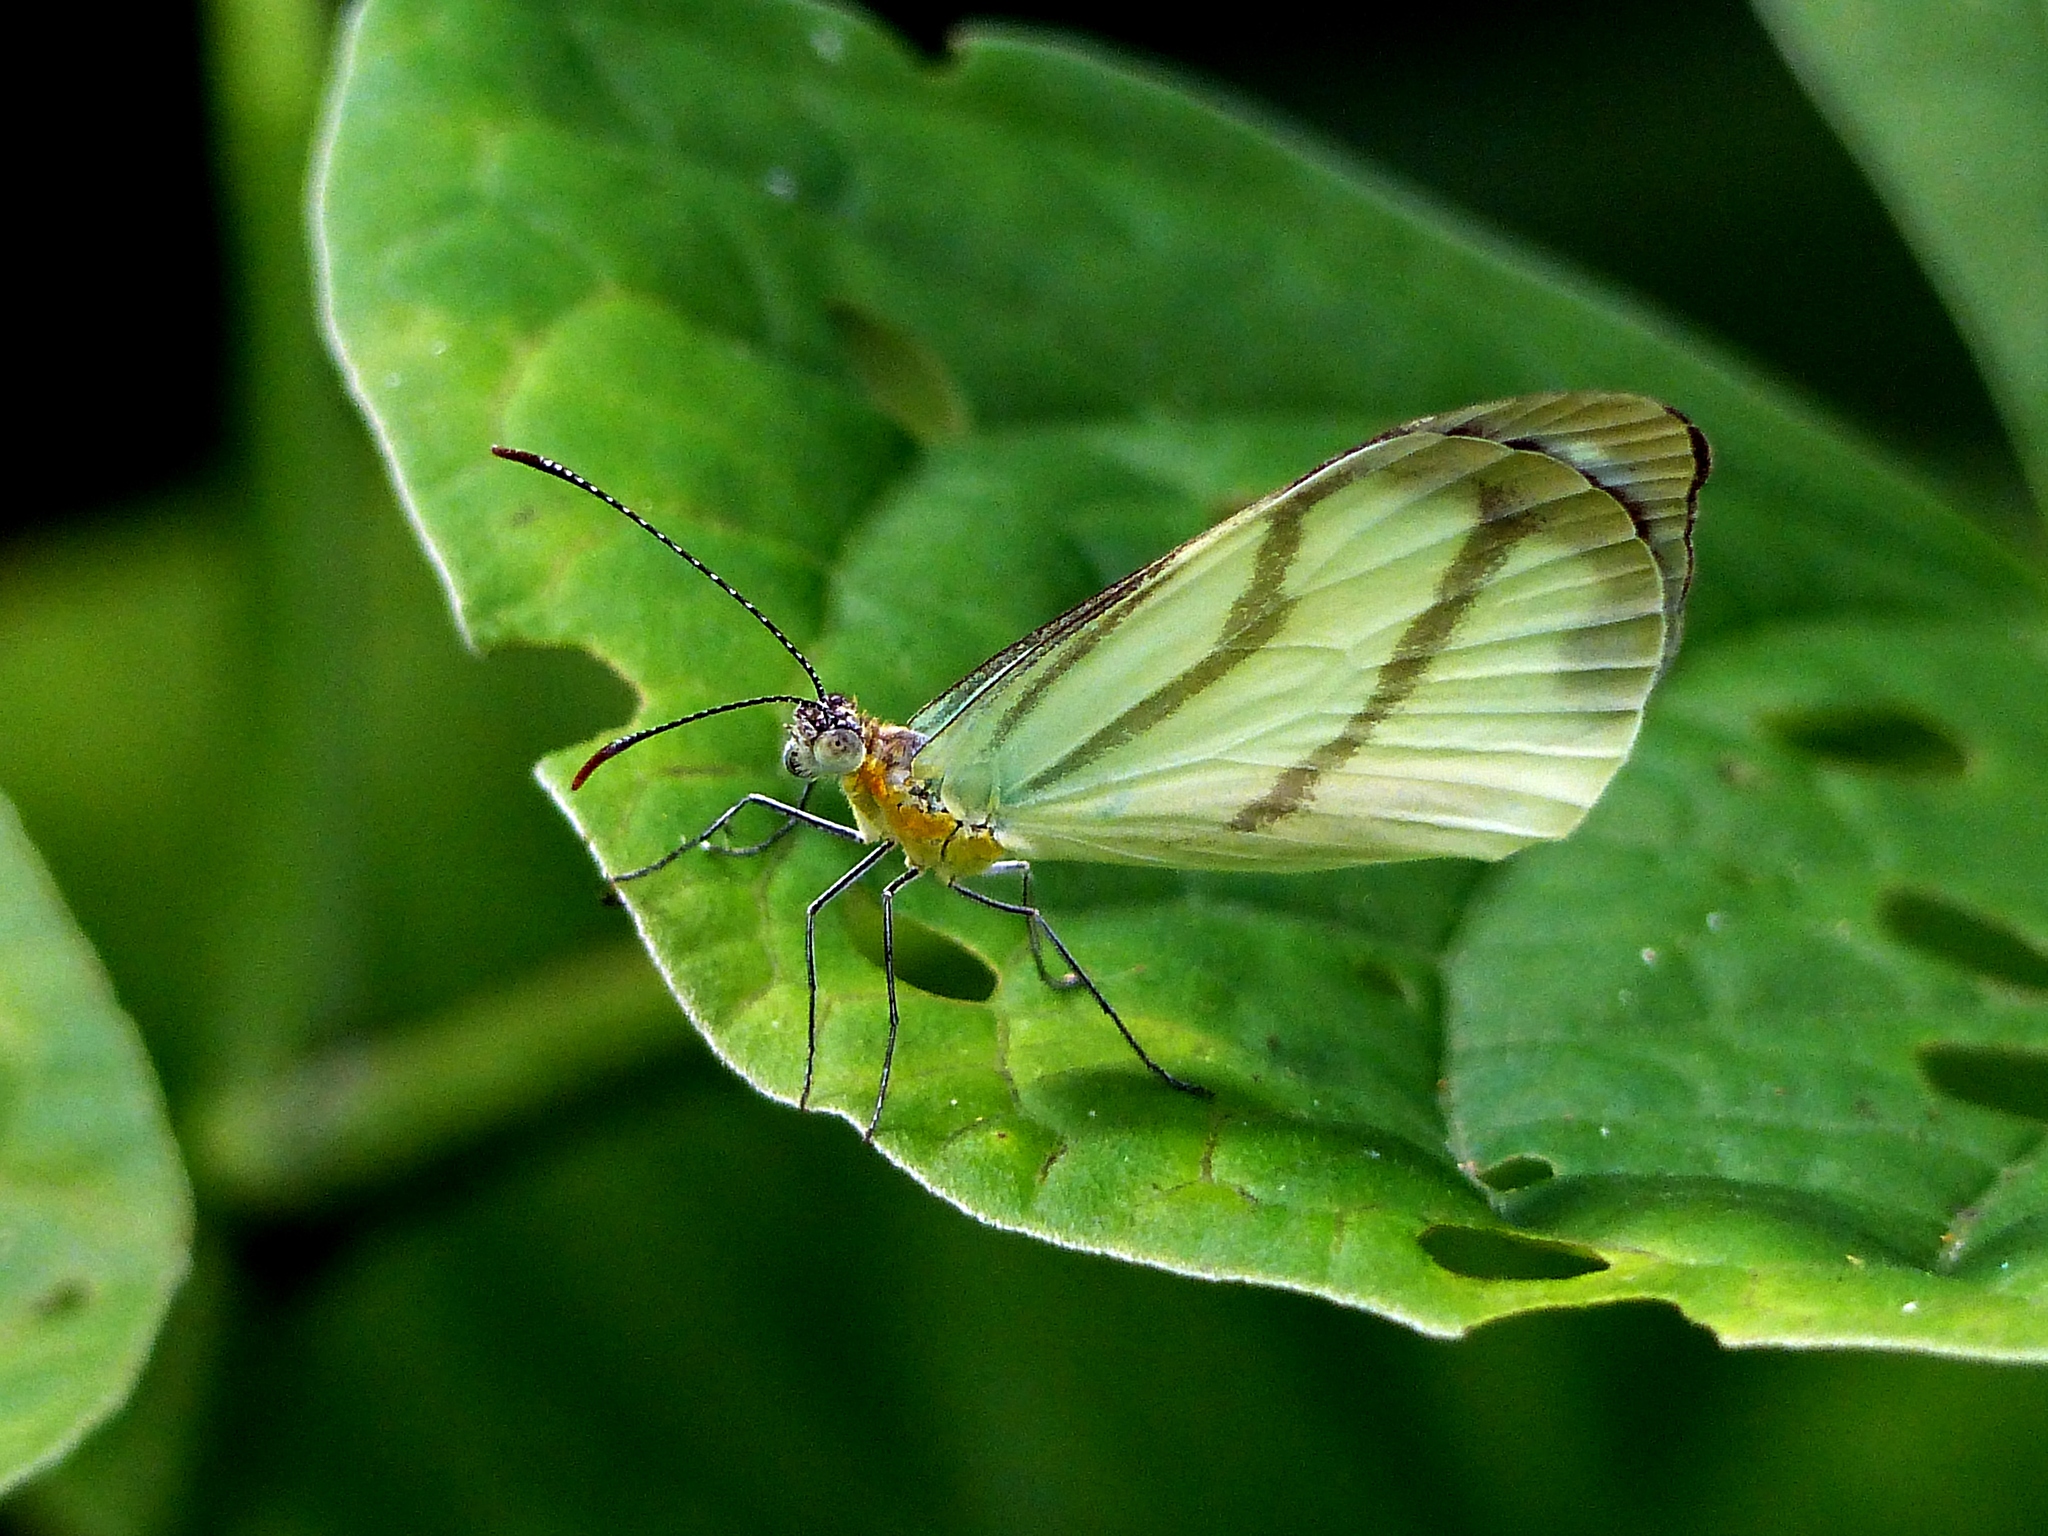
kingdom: Animalia
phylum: Arthropoda
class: Insecta
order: Lepidoptera
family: Pieridae
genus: Enantia
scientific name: Enantia lina
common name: White mimic-white
